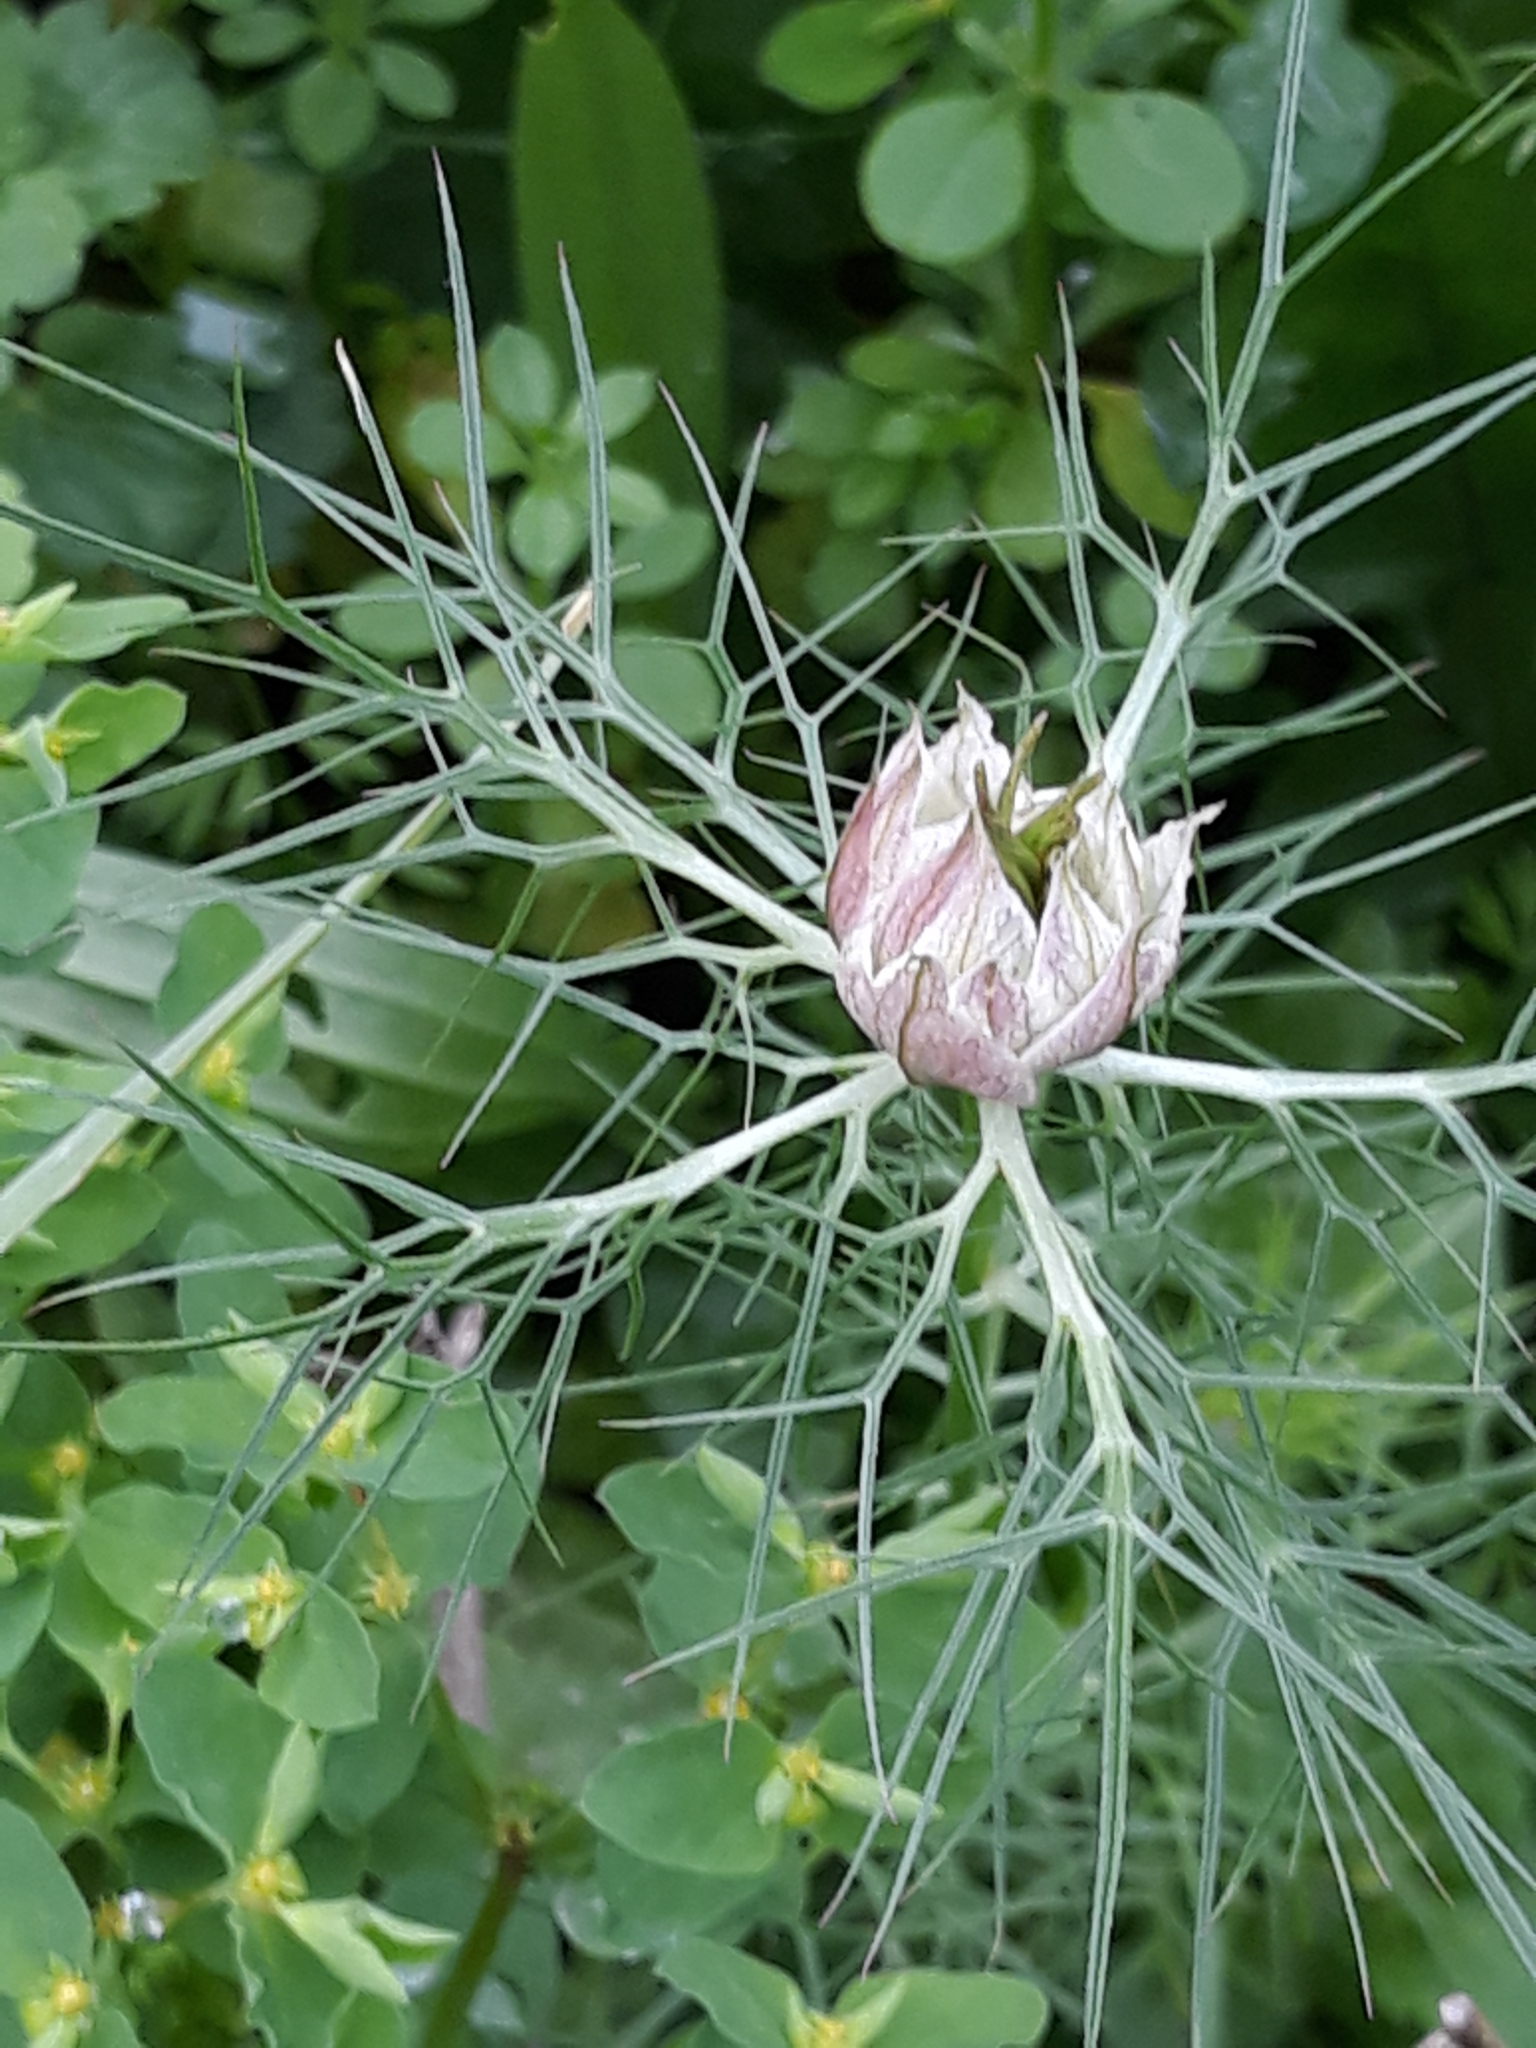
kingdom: Plantae
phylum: Tracheophyta
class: Magnoliopsida
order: Ranunculales
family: Ranunculaceae
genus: Nigella
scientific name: Nigella damascena
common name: Love-in-a-mist
